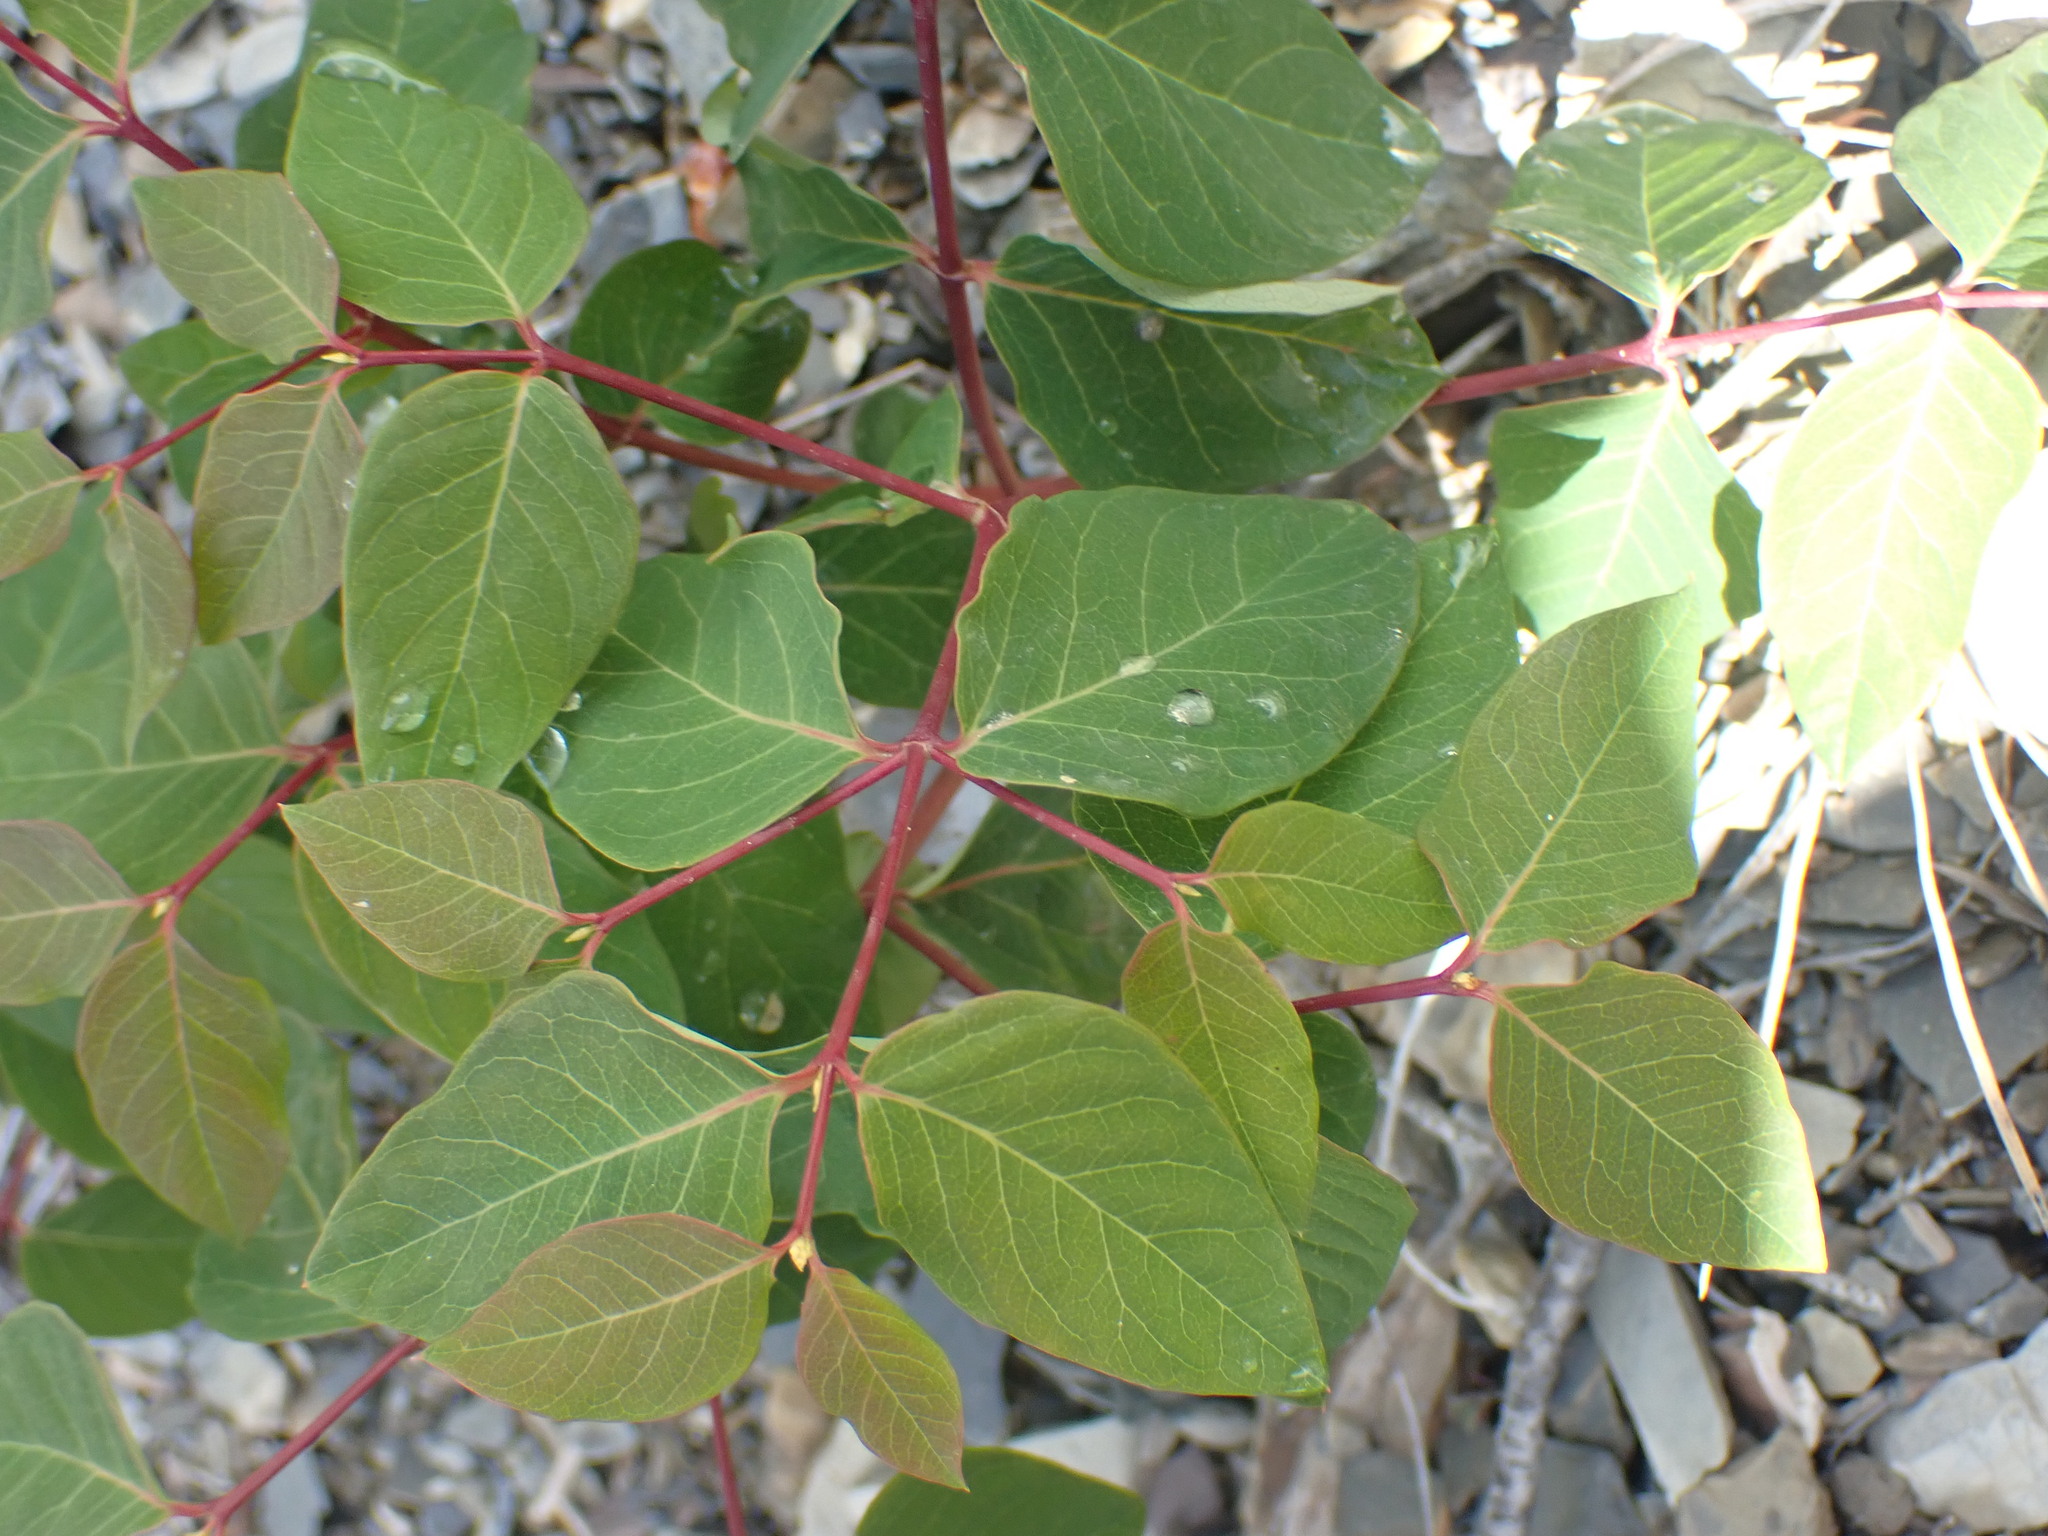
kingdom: Plantae
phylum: Tracheophyta
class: Magnoliopsida
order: Gentianales
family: Apocynaceae
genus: Apocynum
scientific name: Apocynum androsaemifolium
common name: Spreading dogbane
